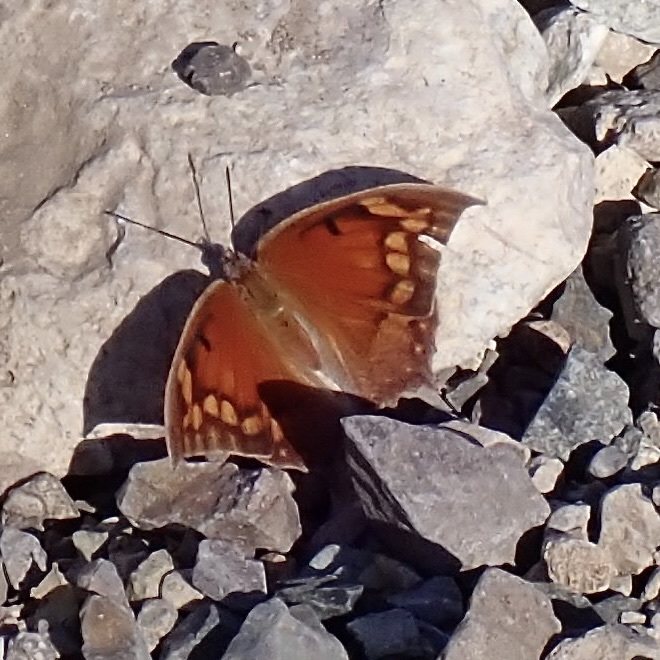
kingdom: Animalia
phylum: Arthropoda
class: Insecta
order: Lepidoptera
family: Nymphalidae
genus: Anaea
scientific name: Anaea aidea
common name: Tropical leafwing
